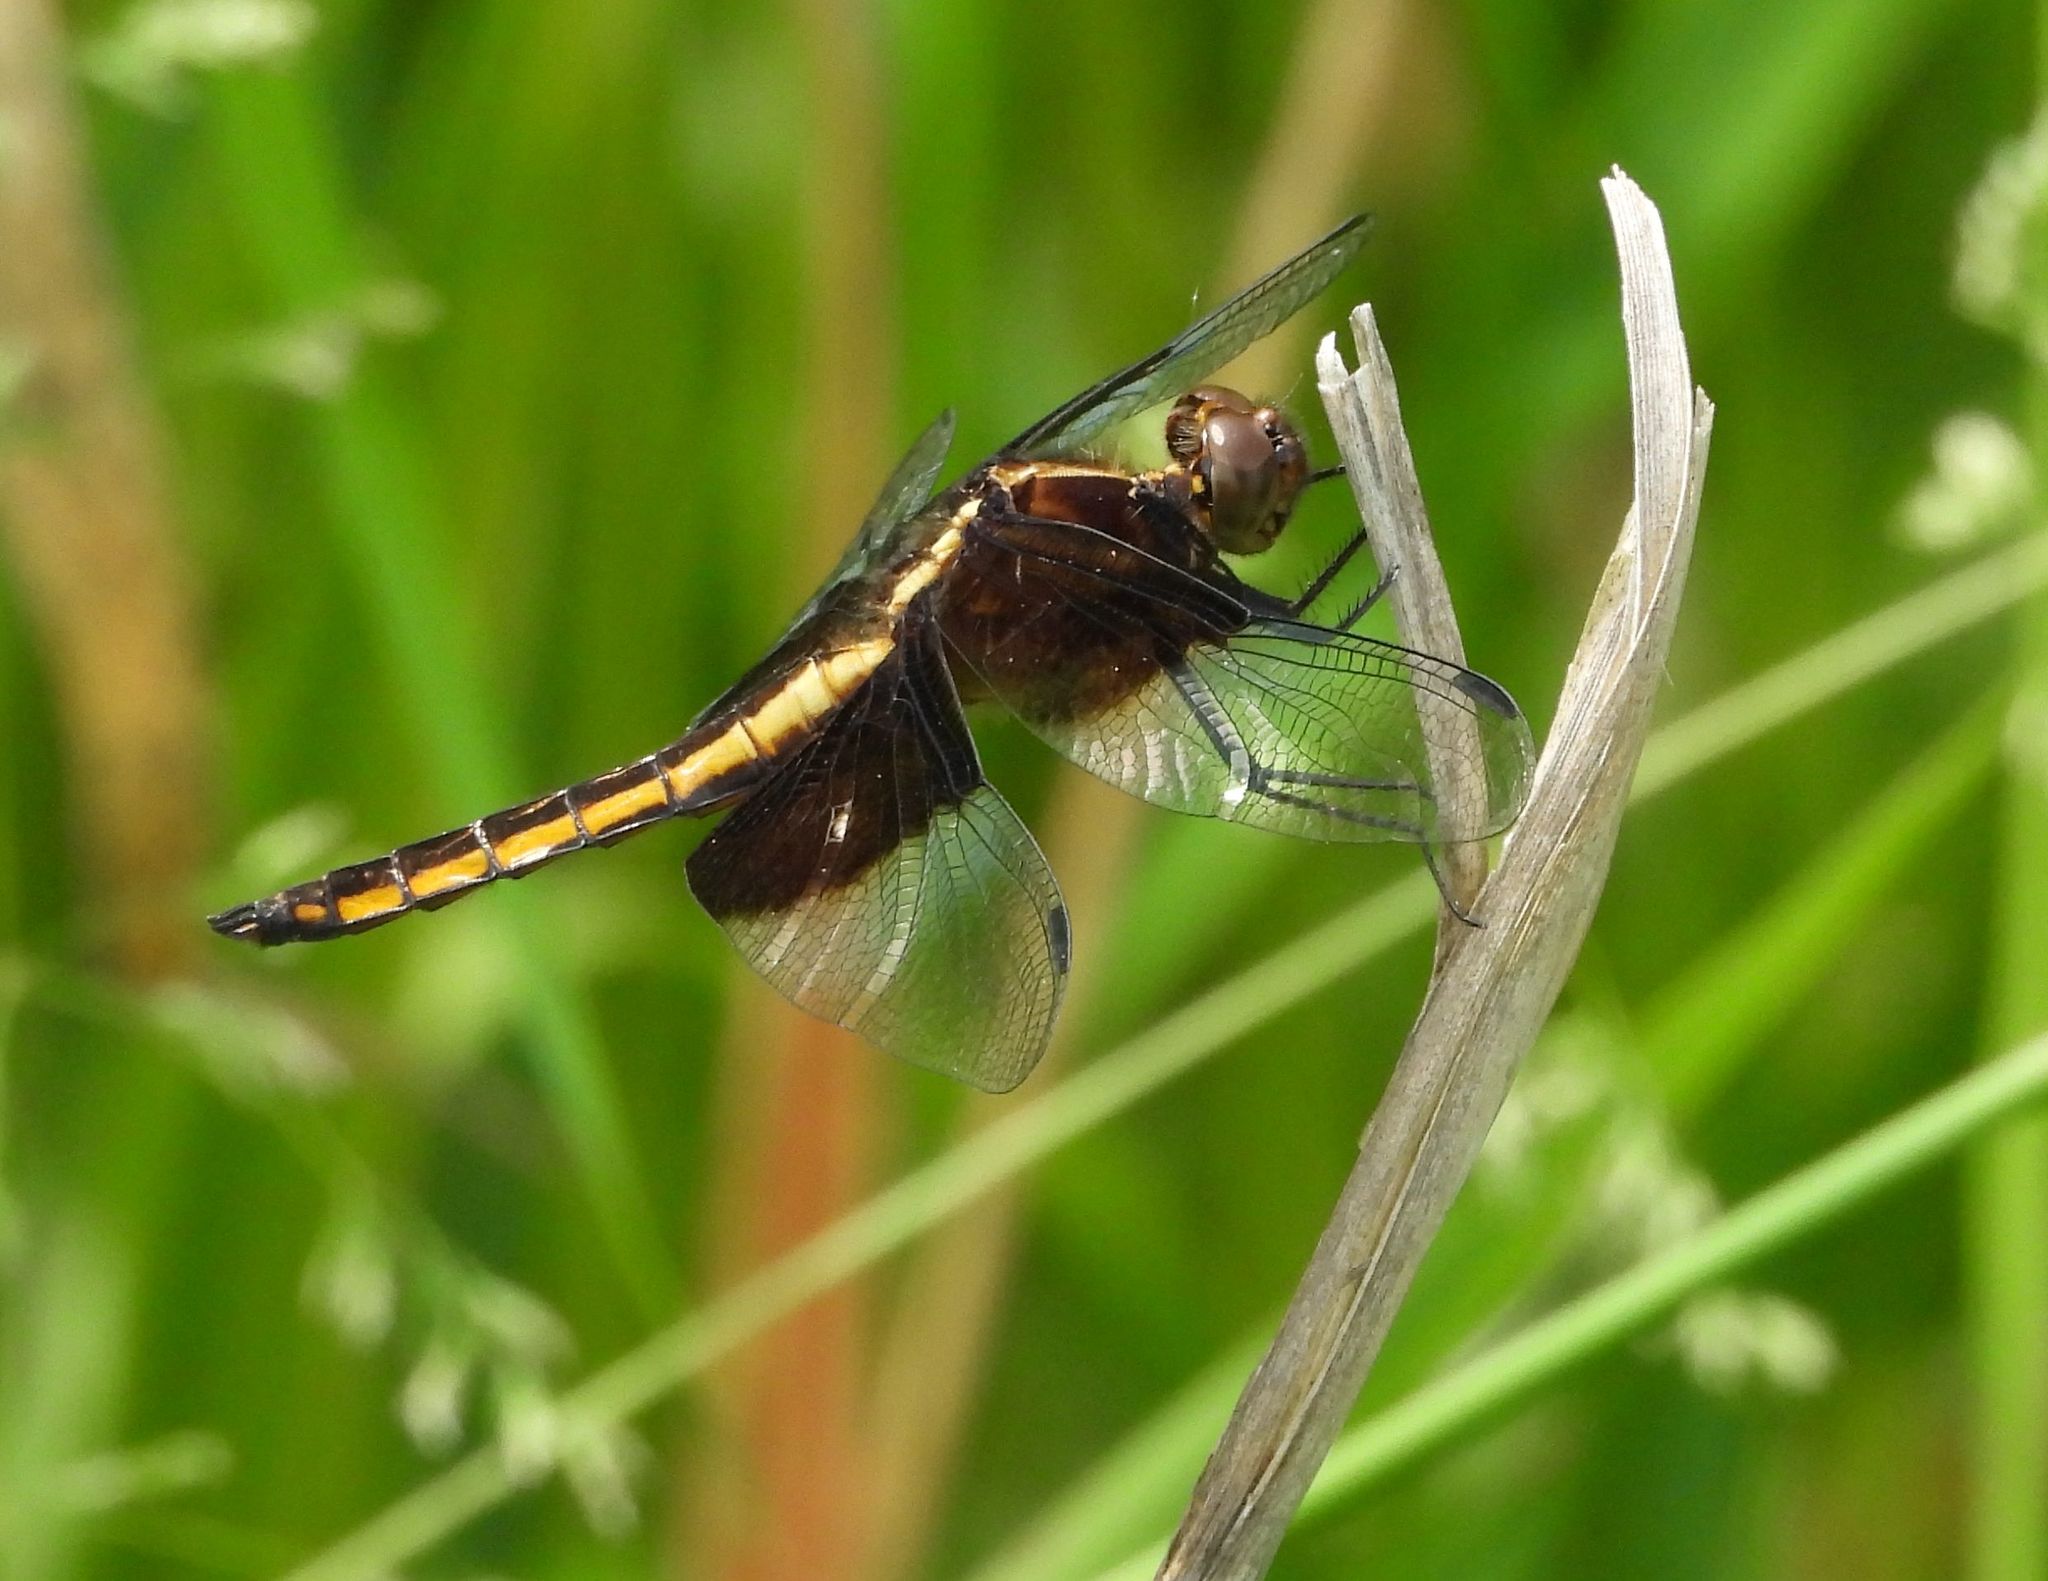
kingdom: Animalia
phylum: Arthropoda
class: Insecta
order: Odonata
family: Libellulidae
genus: Libellula
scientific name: Libellula luctuosa
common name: Widow skimmer
